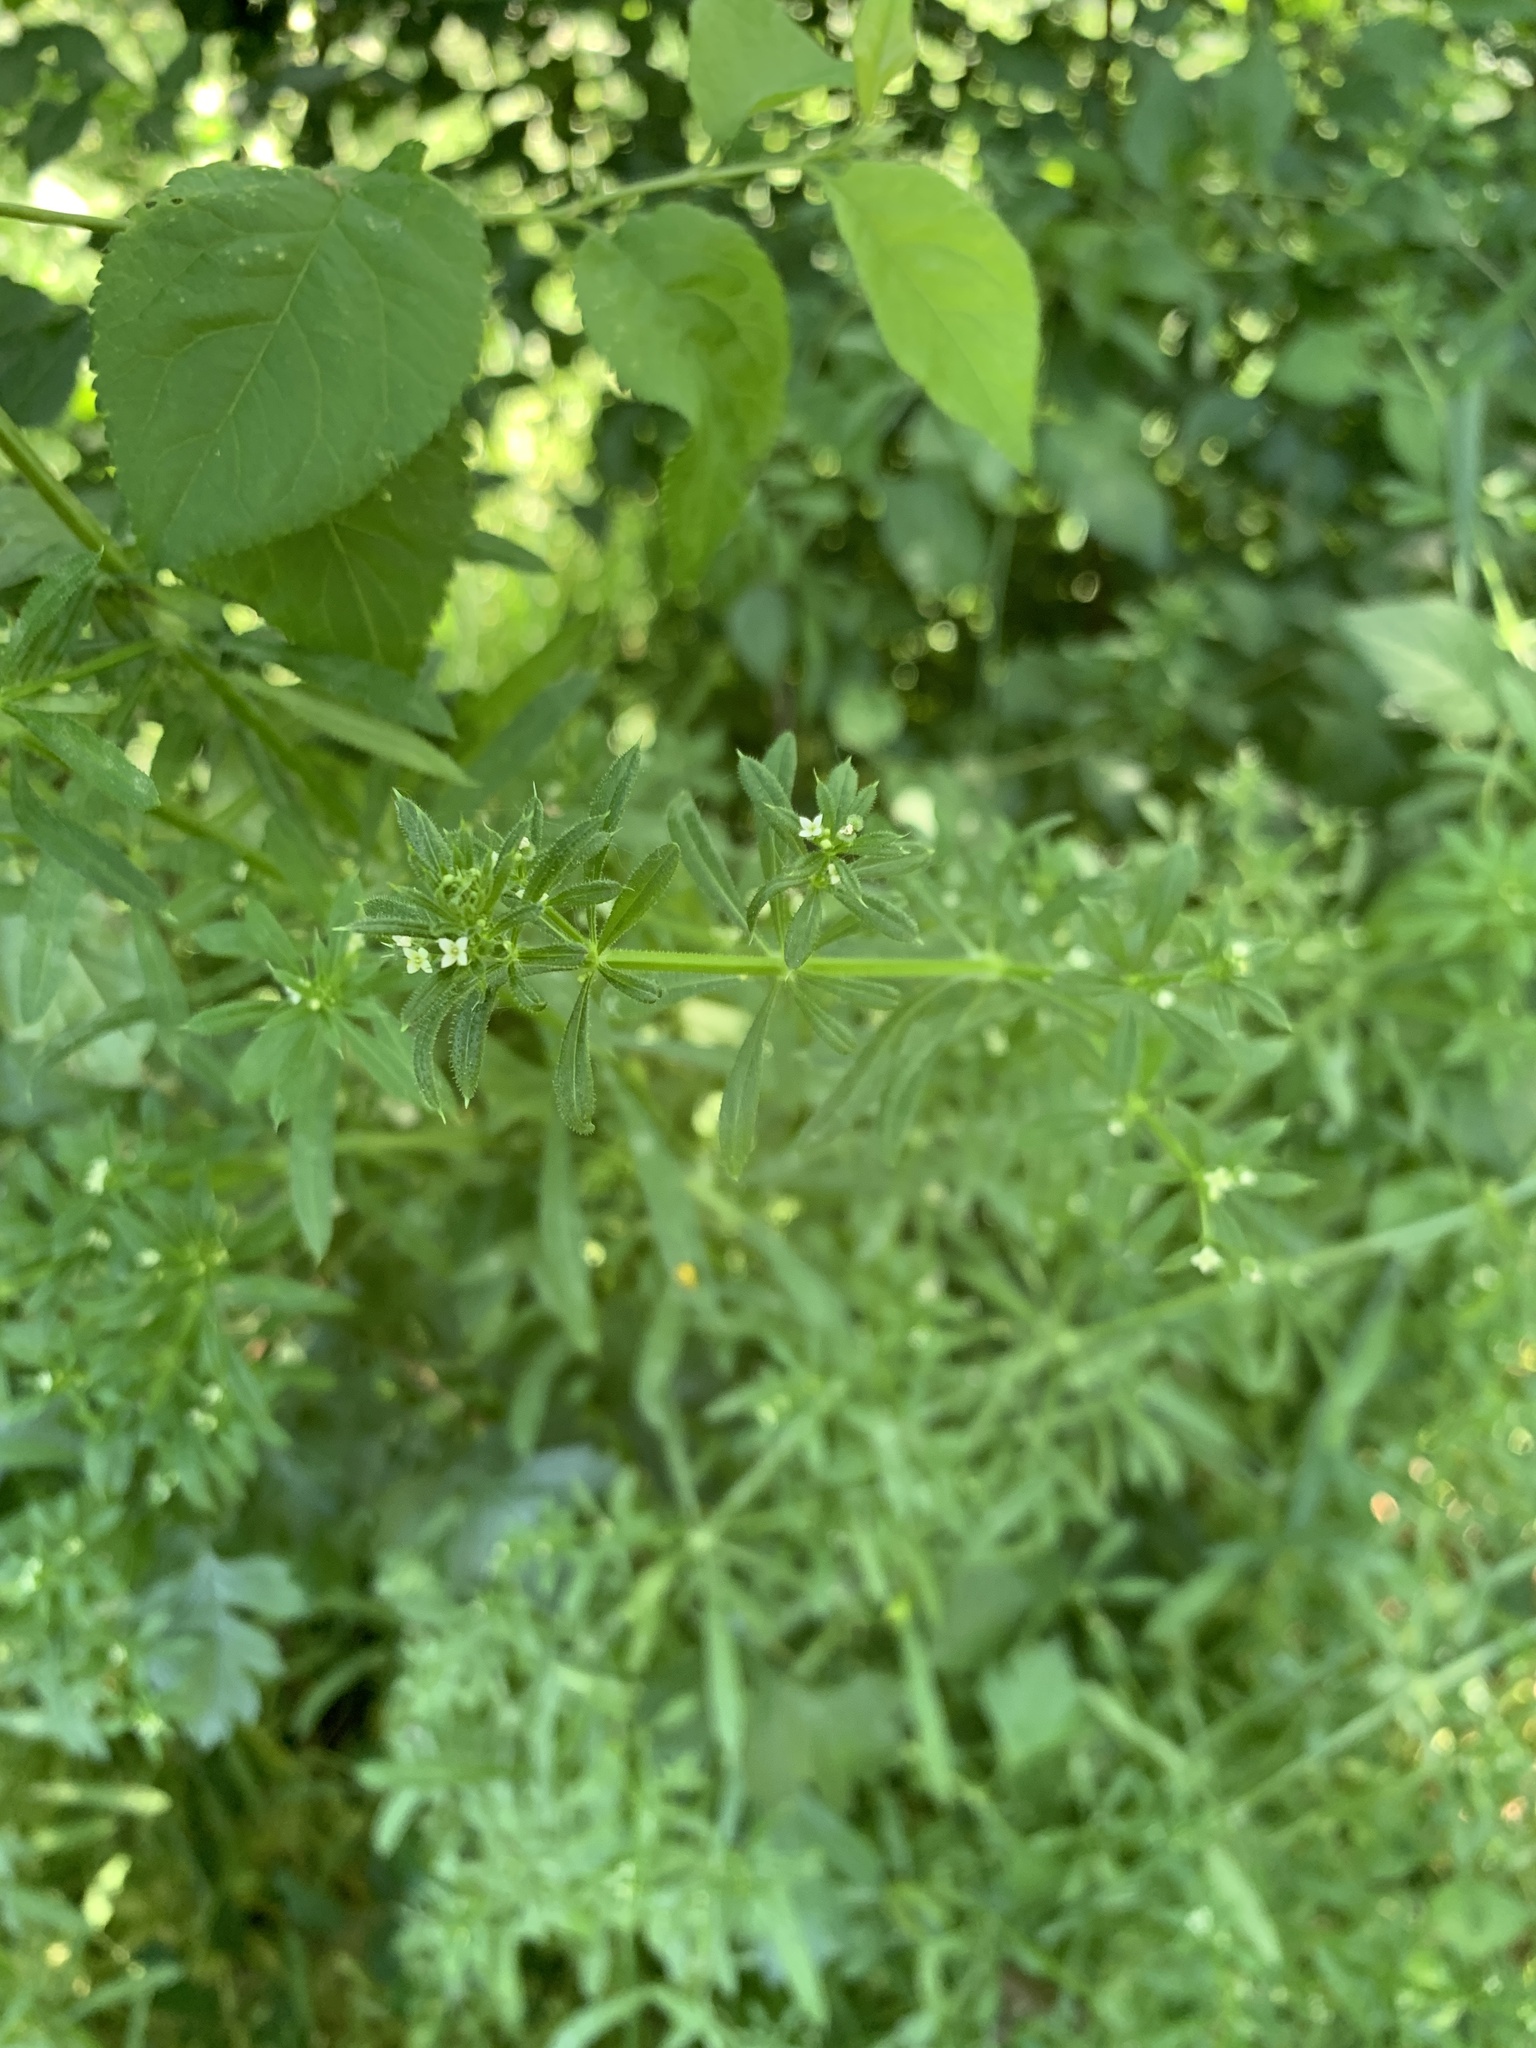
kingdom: Plantae
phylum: Tracheophyta
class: Magnoliopsida
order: Gentianales
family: Rubiaceae
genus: Galium
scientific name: Galium aparine
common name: Cleavers
